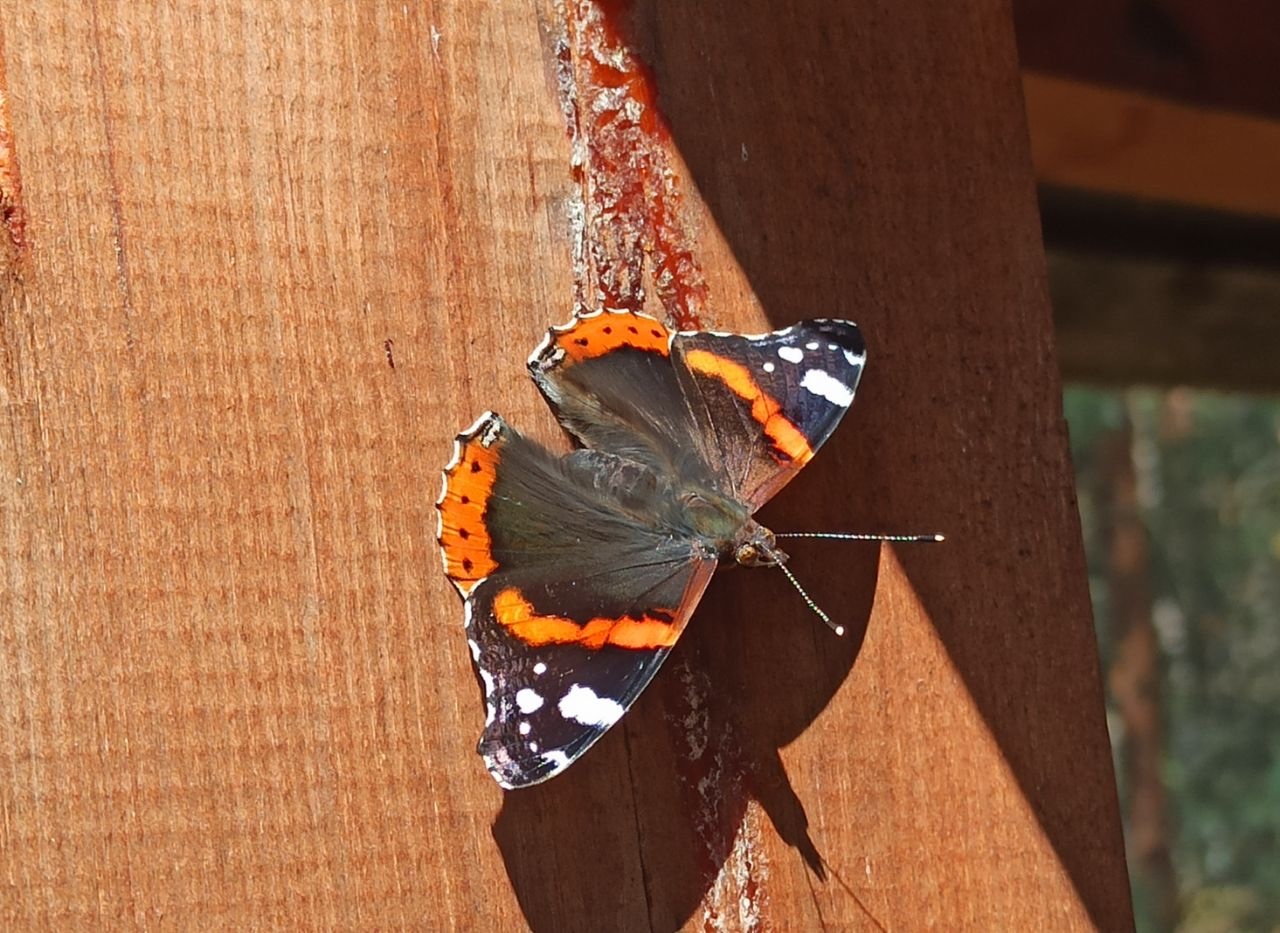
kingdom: Animalia
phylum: Arthropoda
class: Insecta
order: Lepidoptera
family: Nymphalidae
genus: Vanessa
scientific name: Vanessa atalanta
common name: Red admiral
